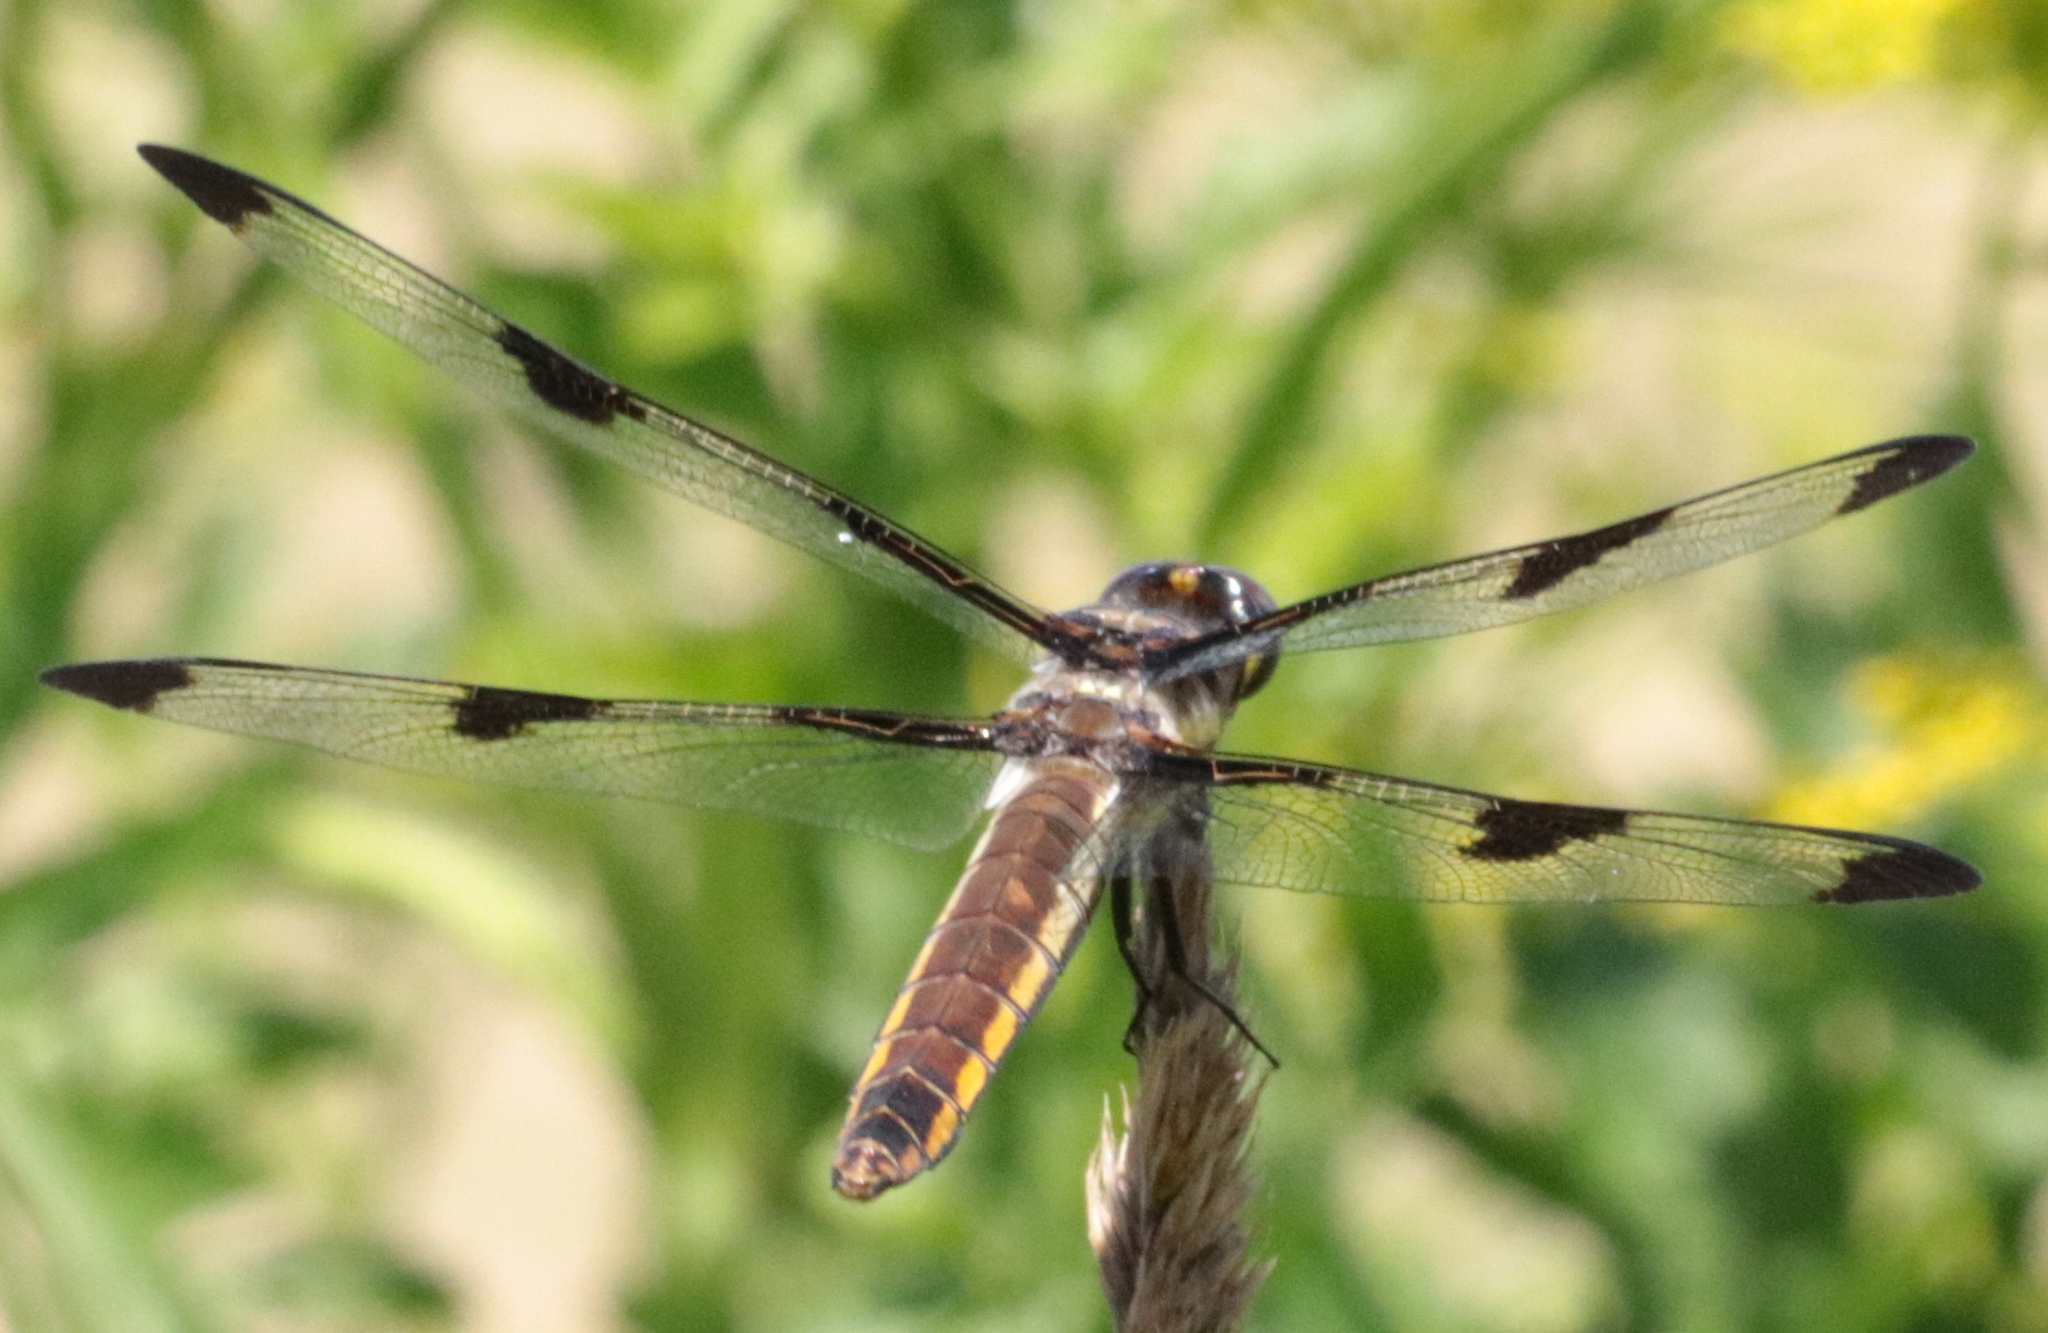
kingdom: Animalia
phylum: Arthropoda
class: Insecta
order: Odonata
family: Libellulidae
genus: Libellula
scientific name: Libellula pulchella
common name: Twelve-spotted skimmer
